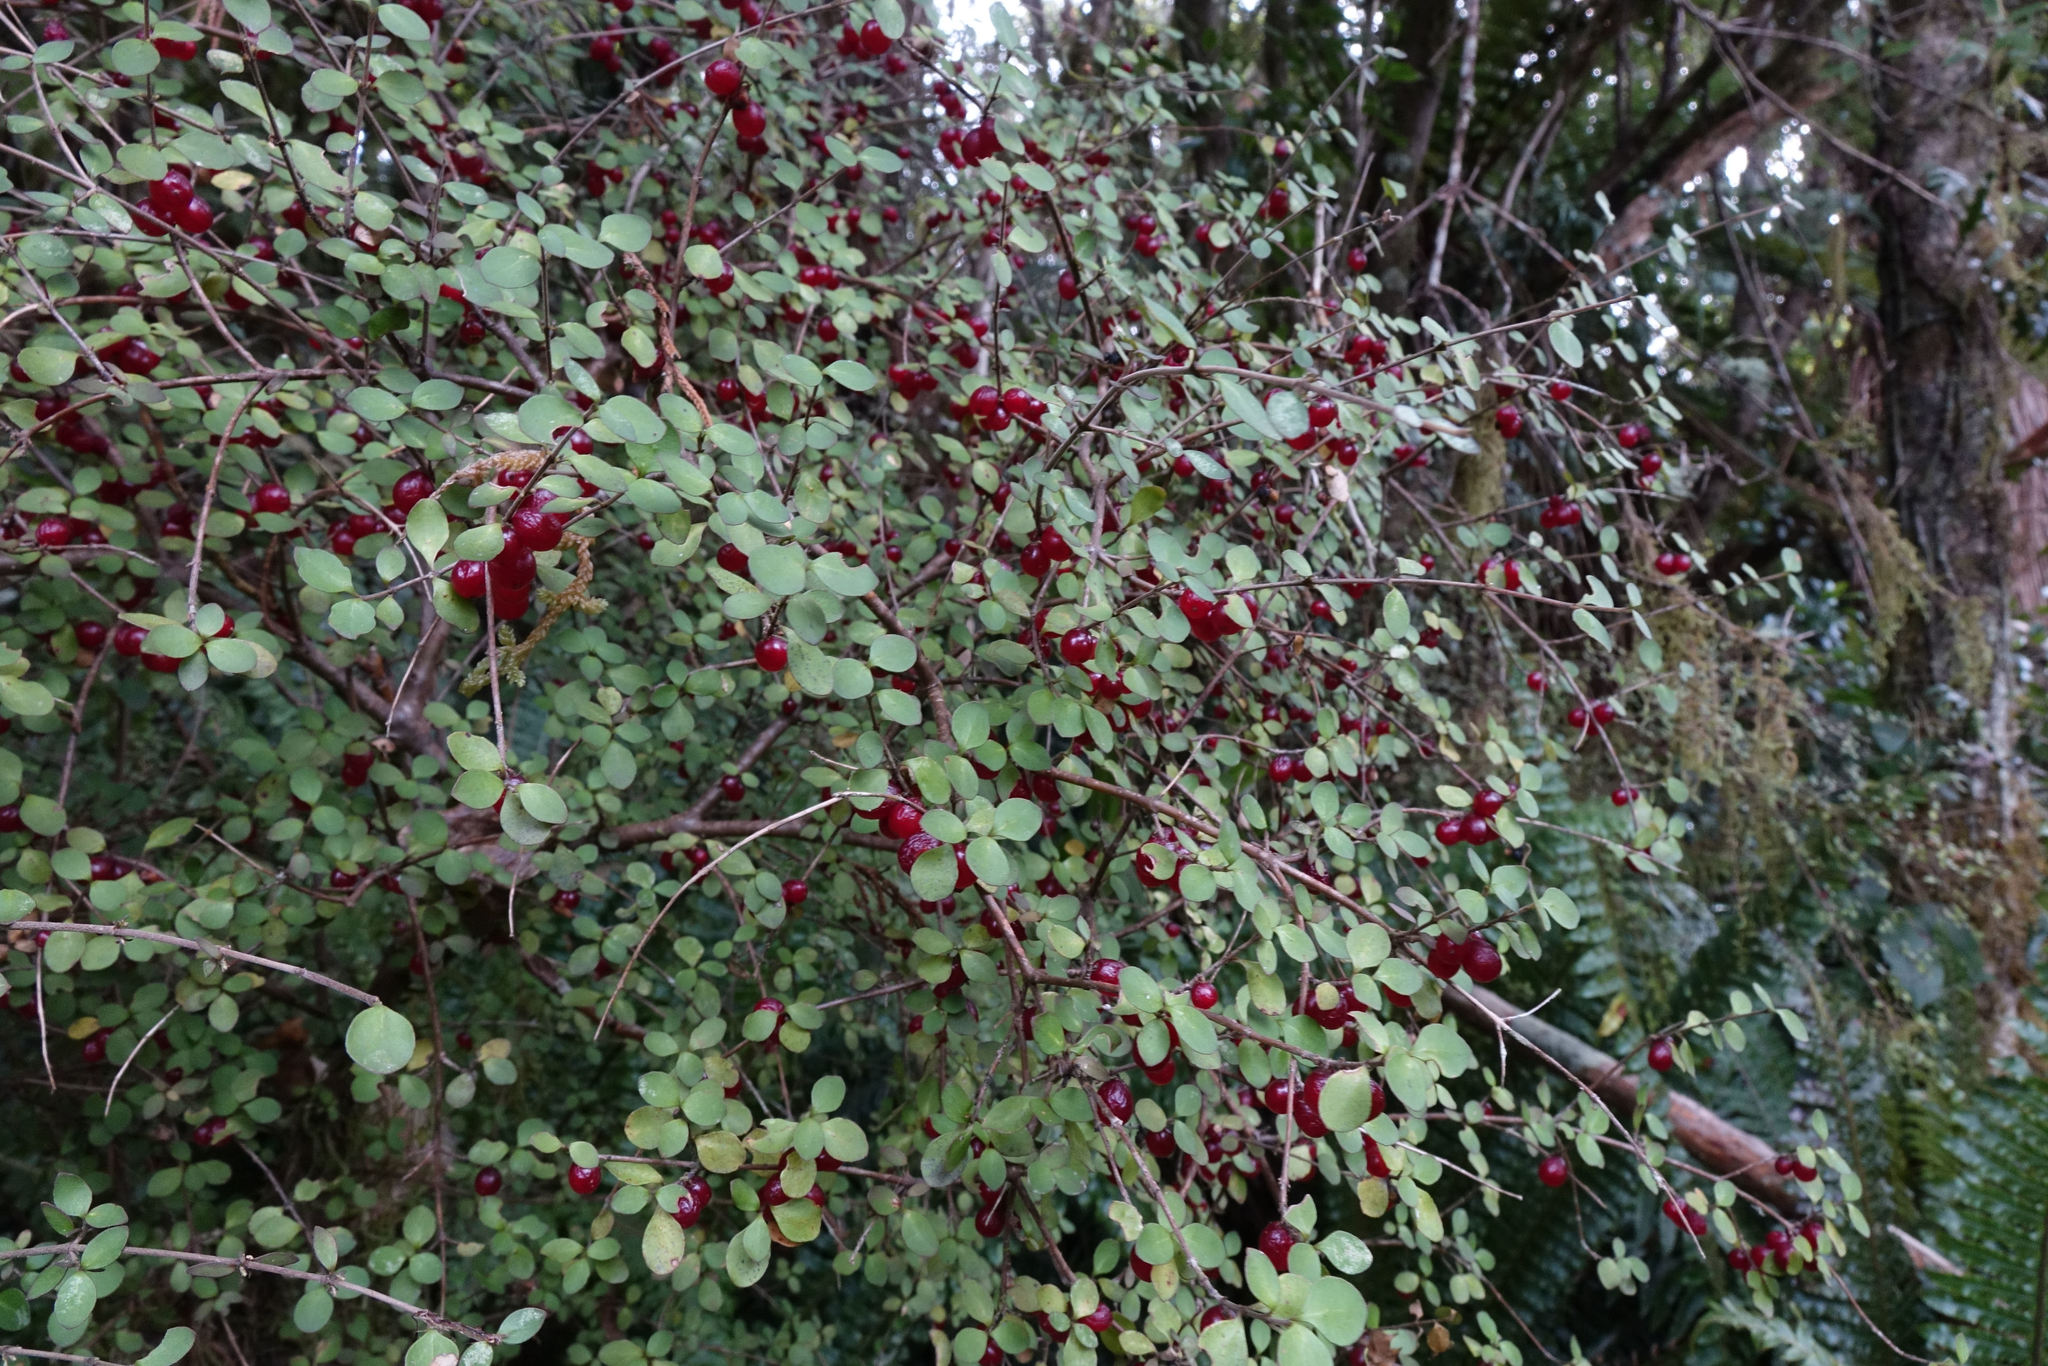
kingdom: Plantae
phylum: Tracheophyta
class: Magnoliopsida
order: Gentianales
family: Rubiaceae
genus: Coprosma
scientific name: Coprosma rhamnoides
